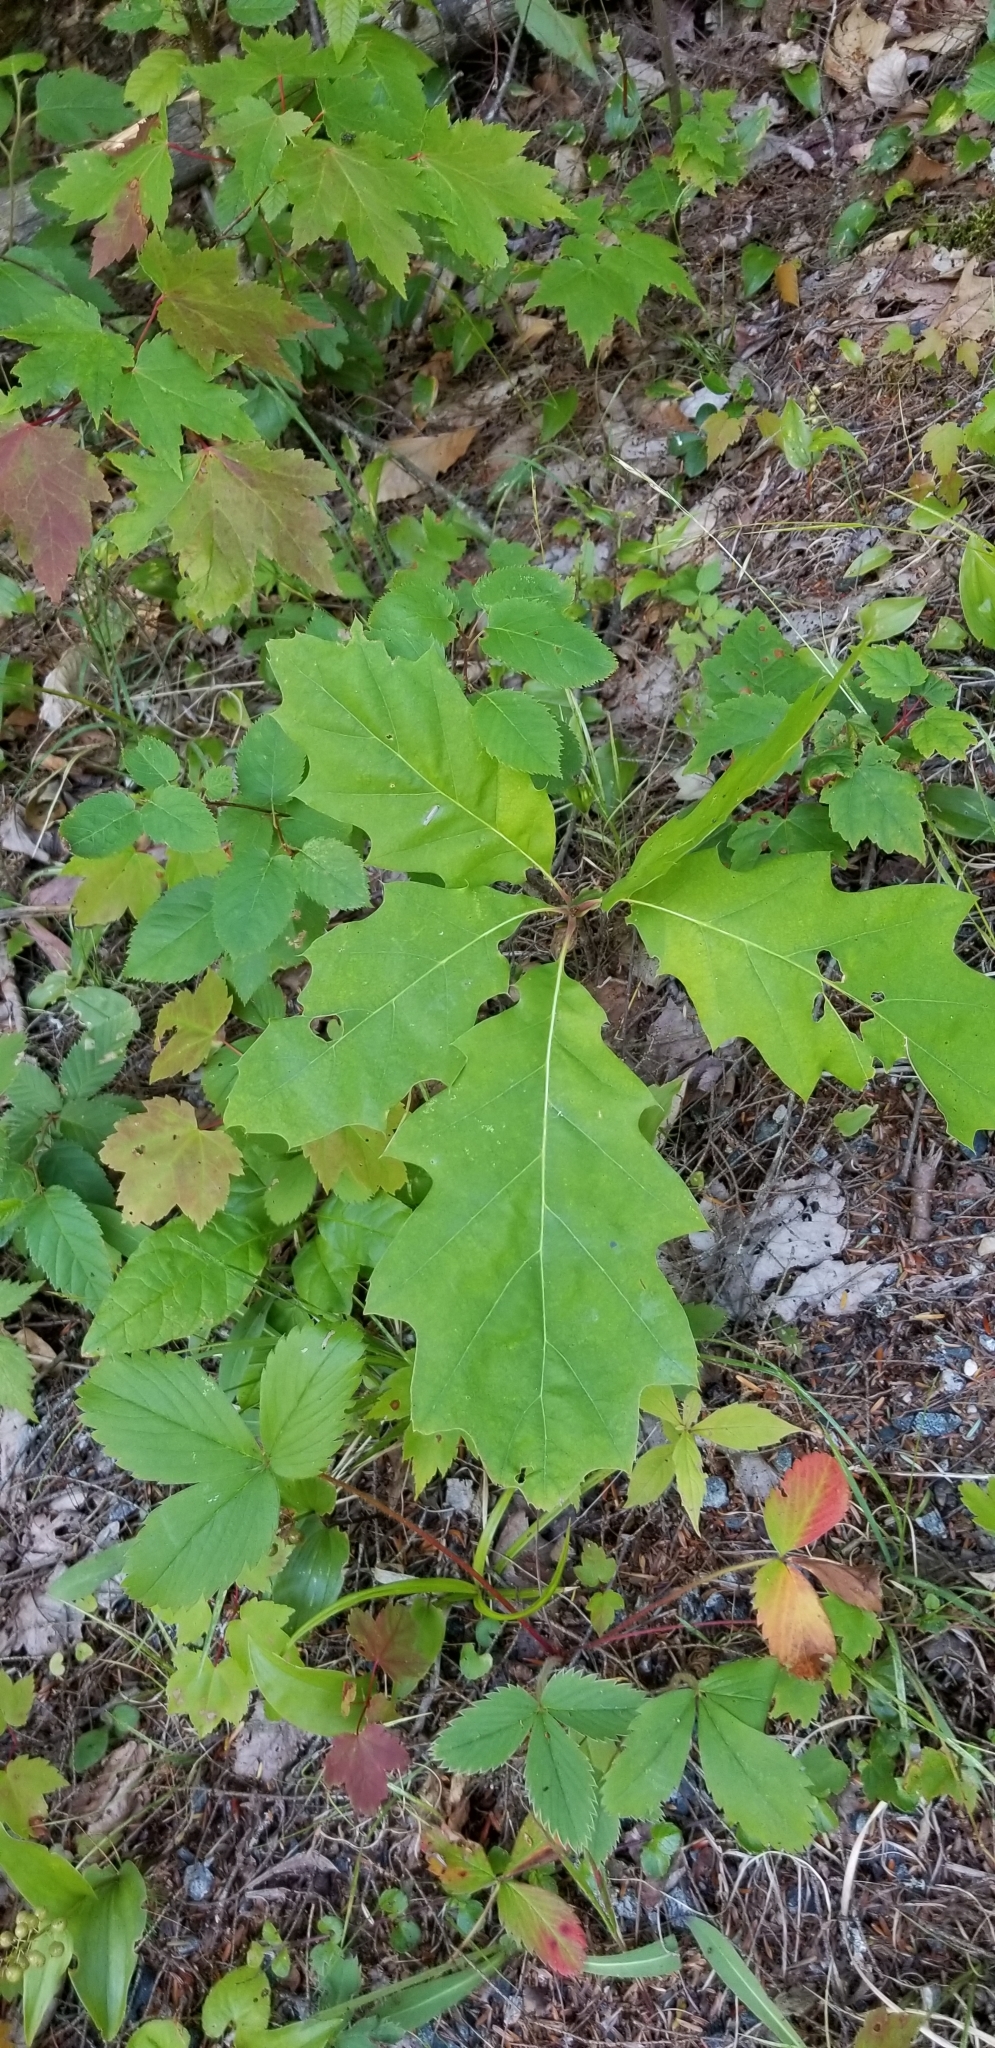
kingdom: Plantae
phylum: Tracheophyta
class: Magnoliopsida
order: Fagales
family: Fagaceae
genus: Quercus
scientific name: Quercus rubra
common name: Red oak
